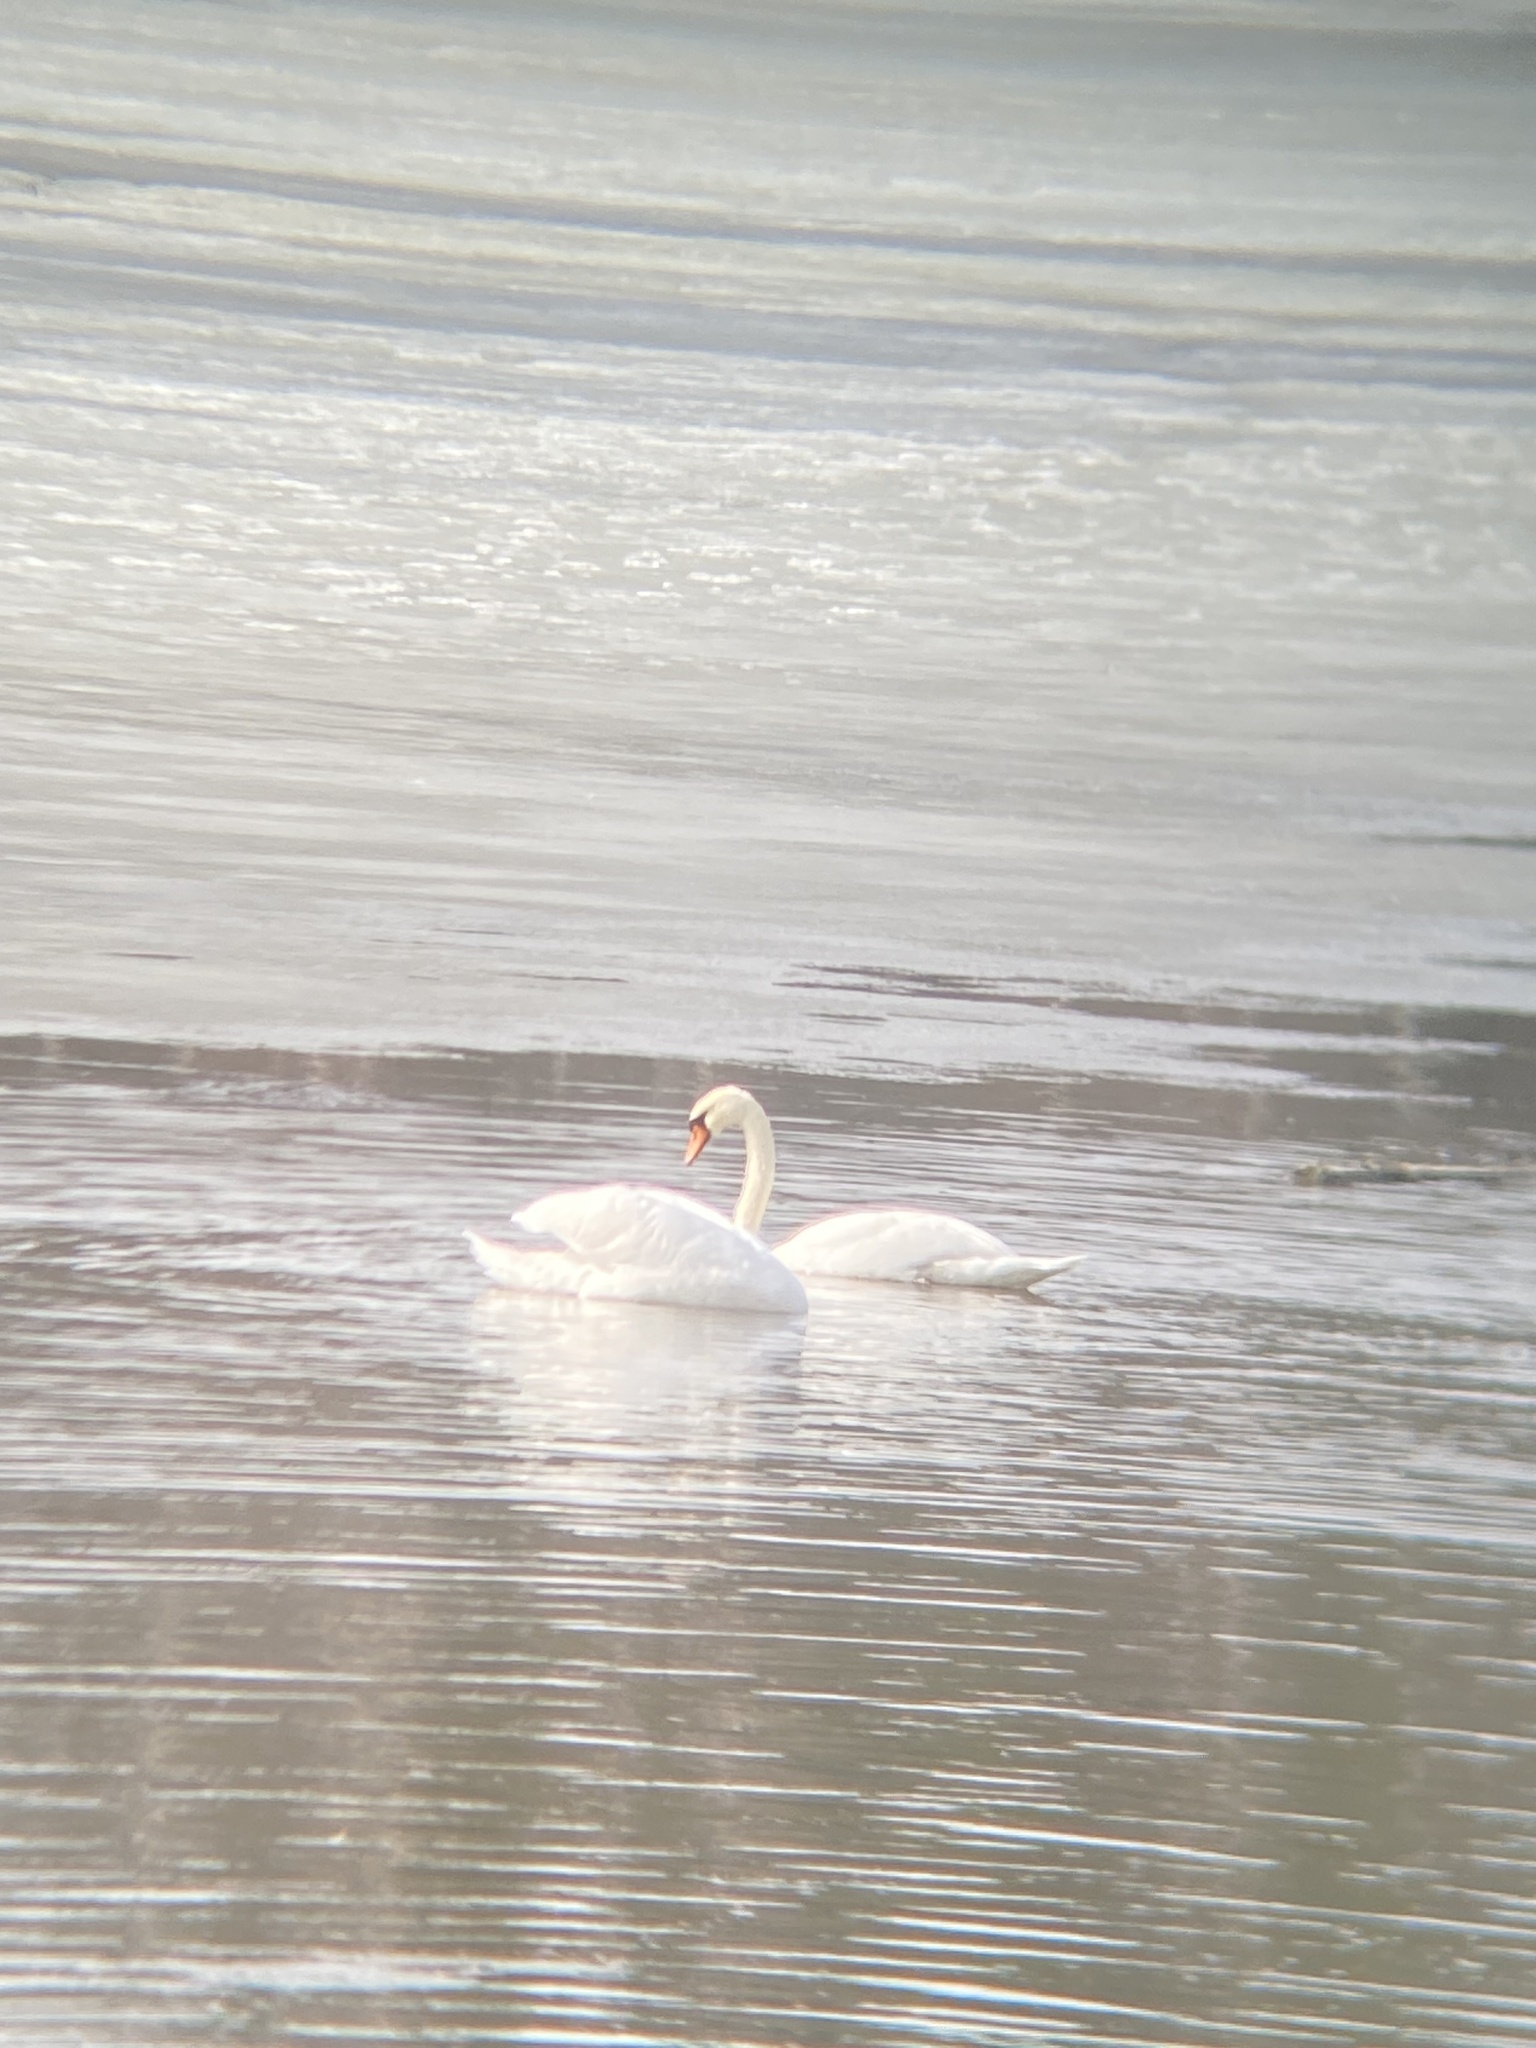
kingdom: Animalia
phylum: Chordata
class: Aves
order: Anseriformes
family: Anatidae
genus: Cygnus
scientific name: Cygnus olor
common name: Mute swan
